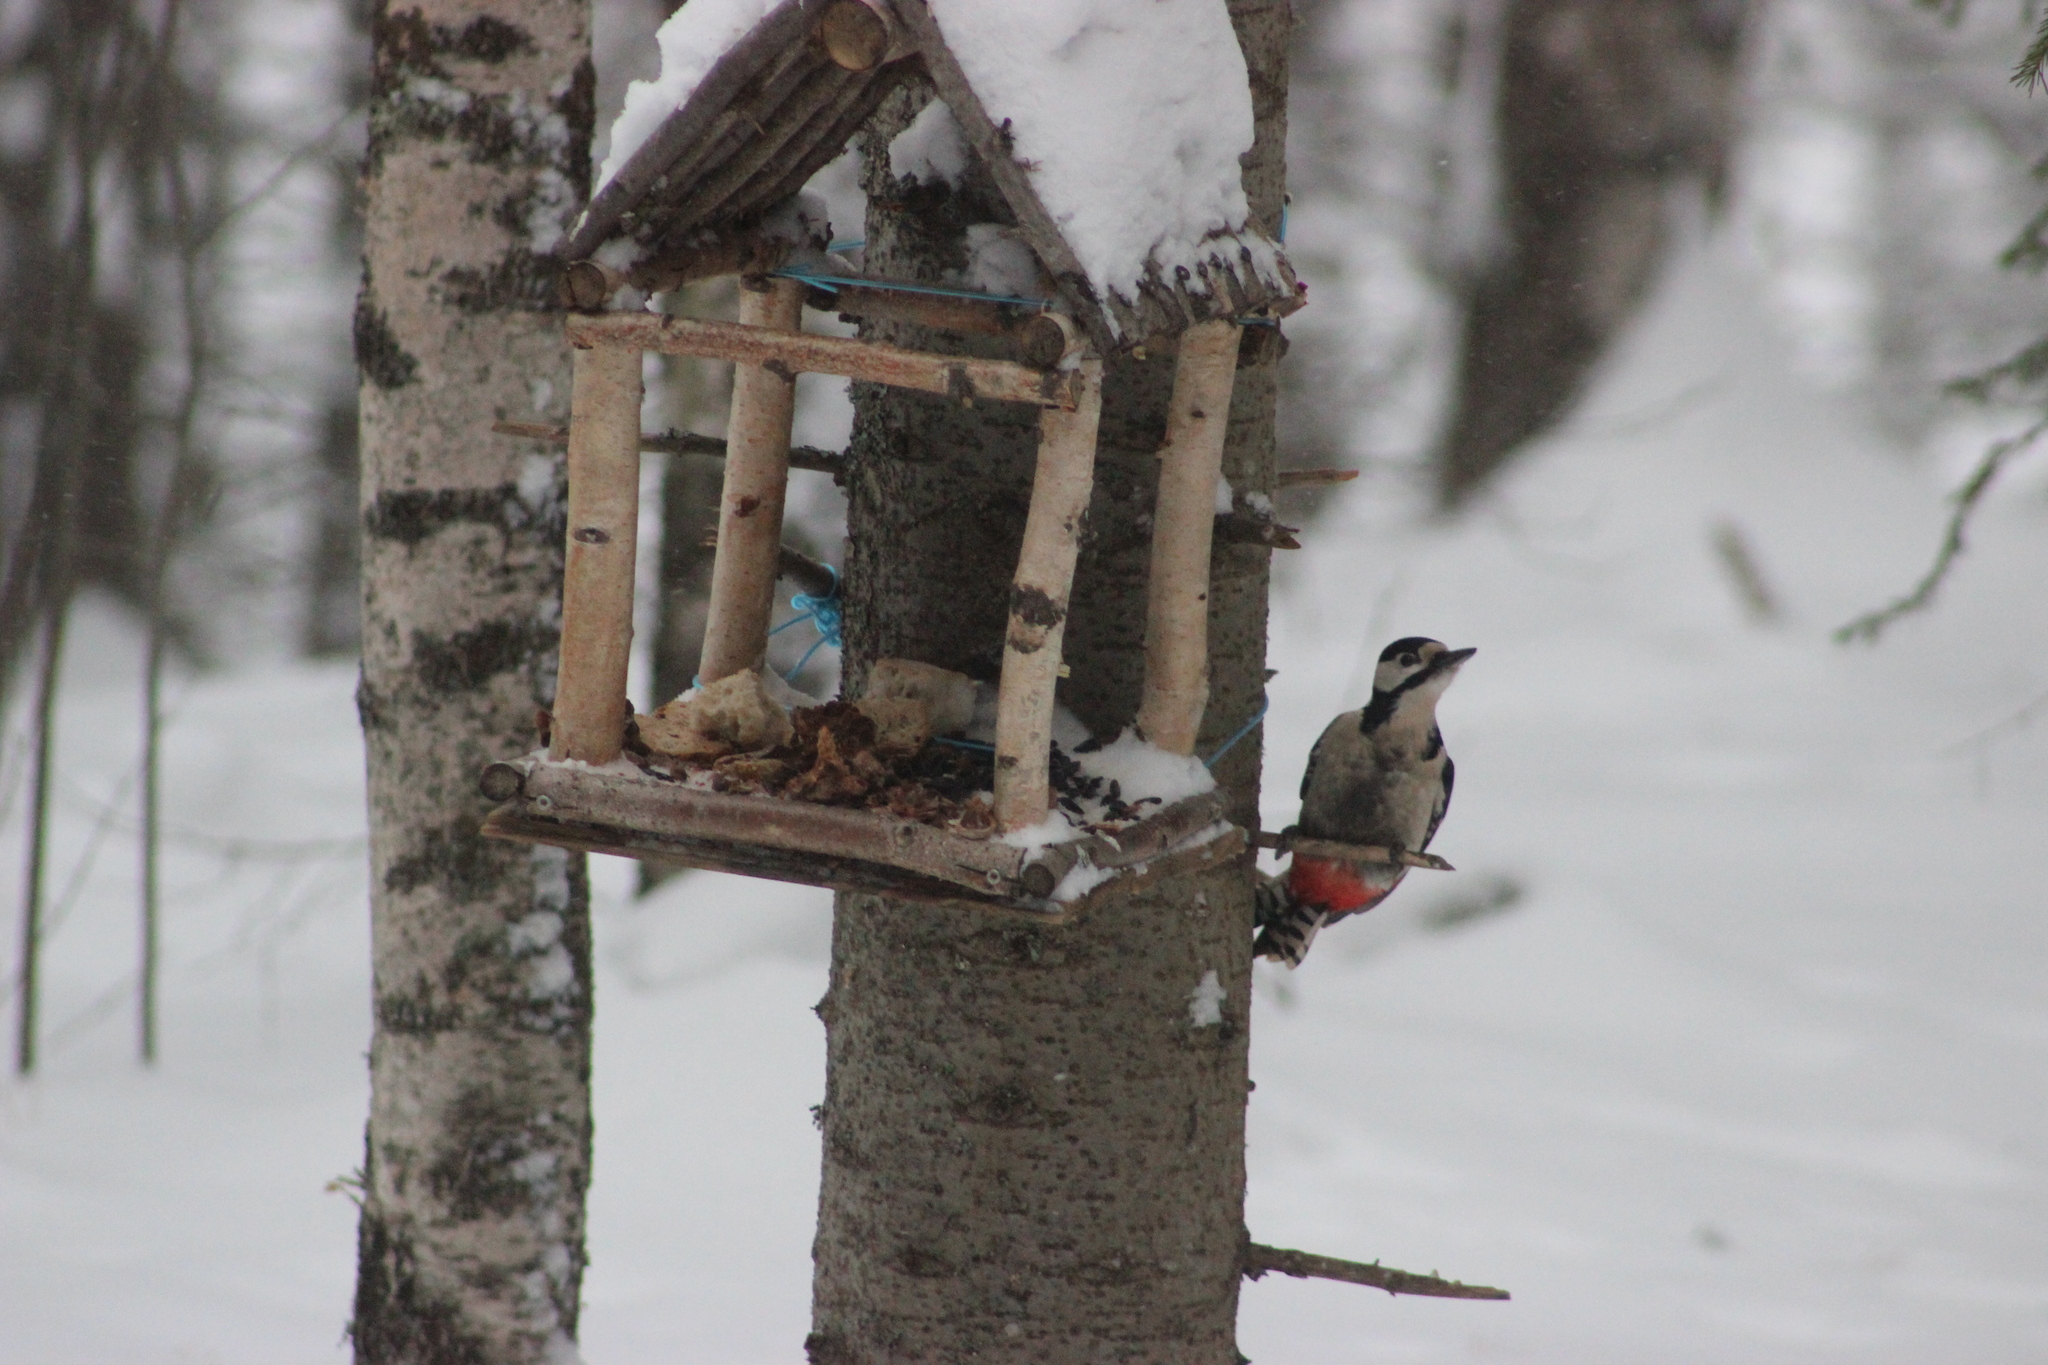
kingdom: Animalia
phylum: Chordata
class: Aves
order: Piciformes
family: Picidae
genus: Dendrocopos
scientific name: Dendrocopos major
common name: Great spotted woodpecker
